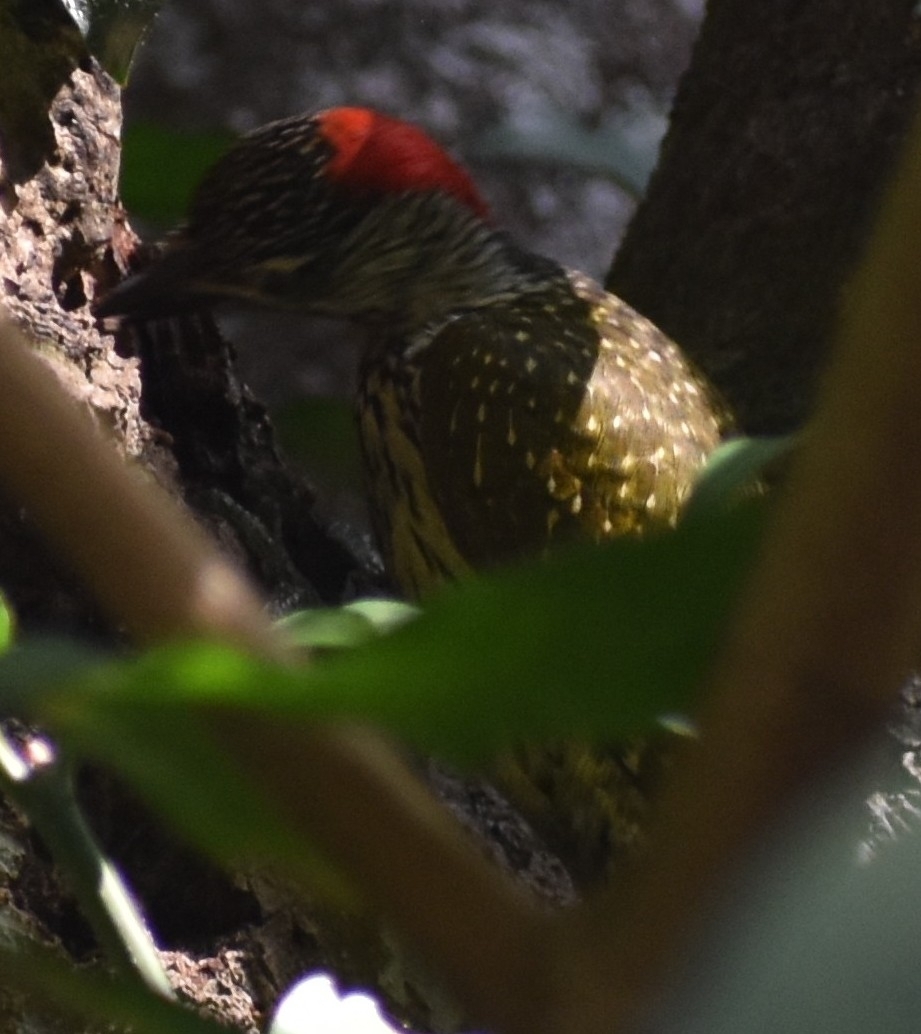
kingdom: Animalia
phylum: Chordata
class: Aves
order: Piciformes
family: Picidae
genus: Campethera
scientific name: Campethera abingoni
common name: Golden-tailed woodpecker
